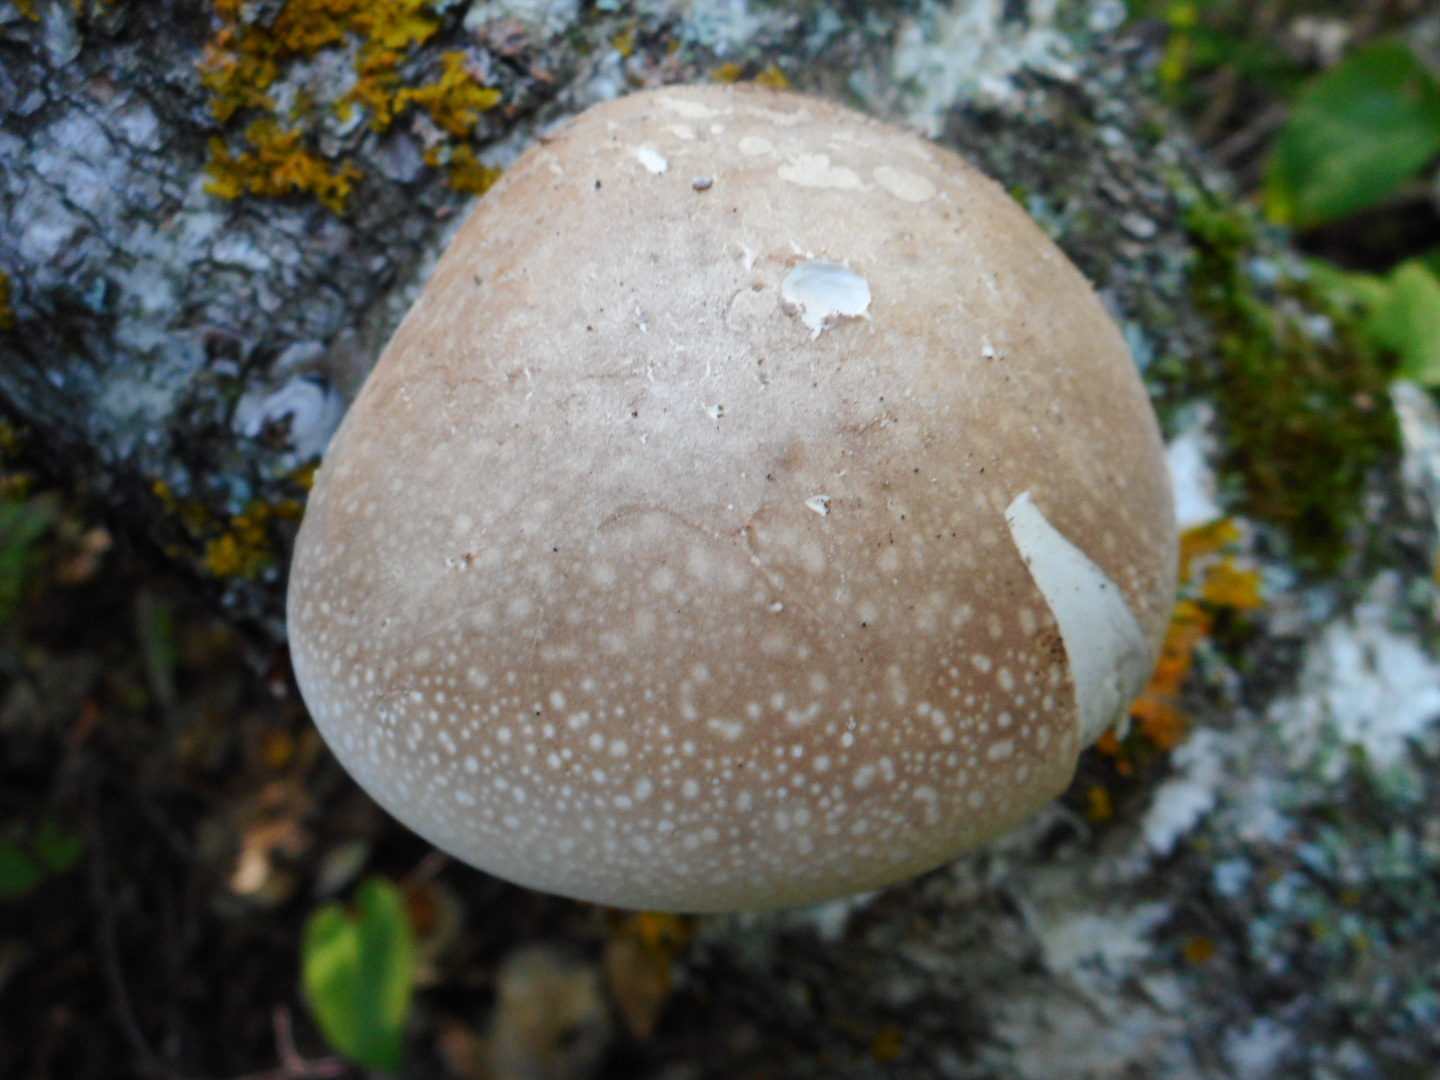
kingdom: Fungi
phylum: Basidiomycota
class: Agaricomycetes
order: Polyporales
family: Fomitopsidaceae
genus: Fomitopsis
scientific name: Fomitopsis betulina
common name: Birch polypore
